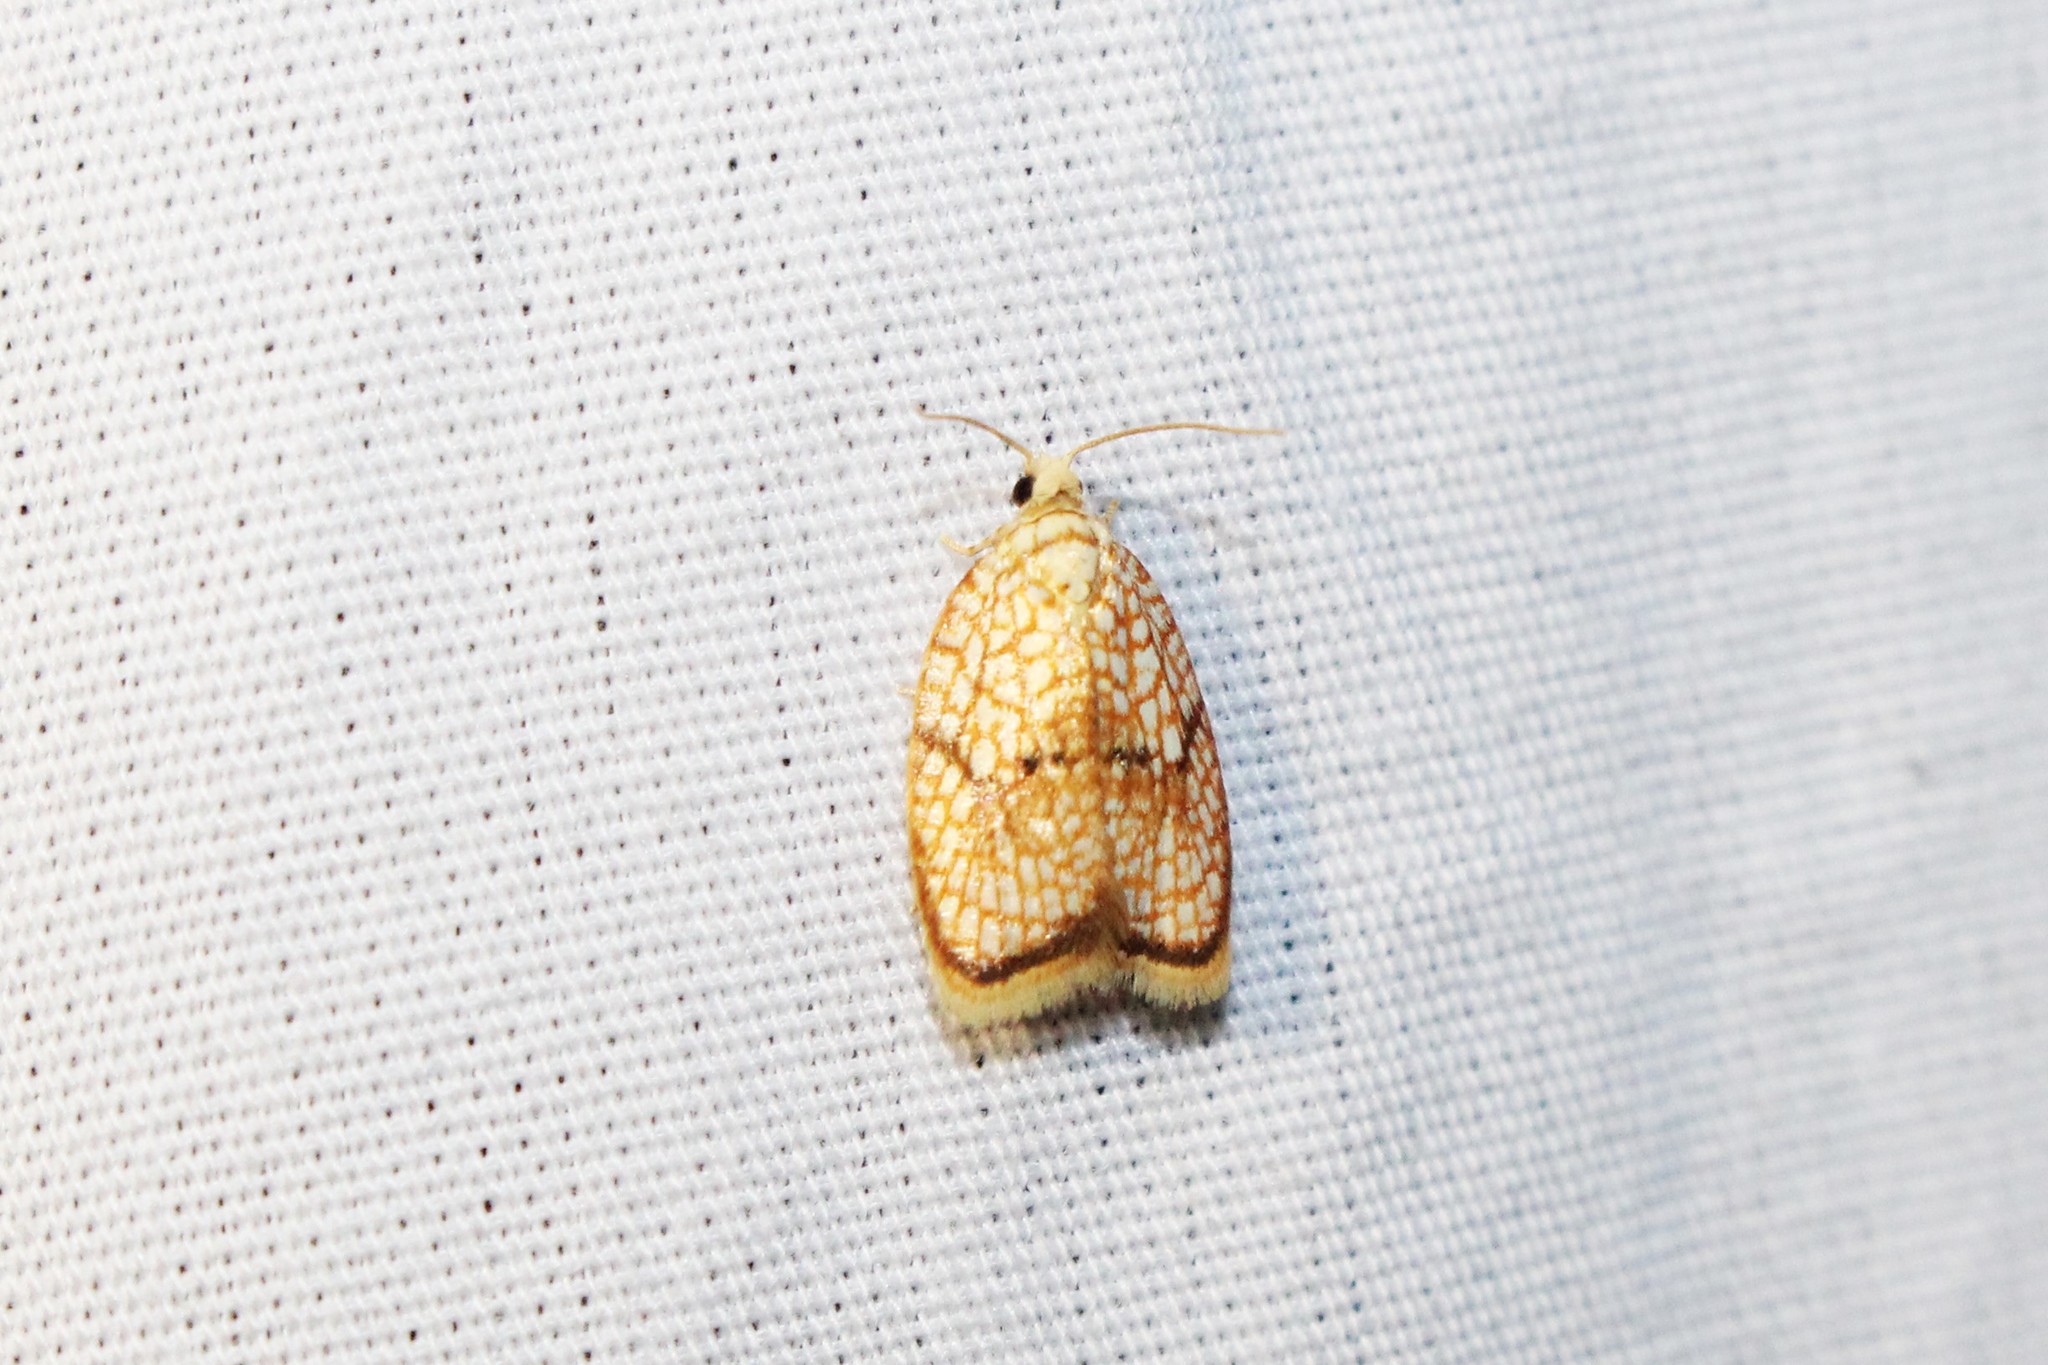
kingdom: Animalia
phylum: Arthropoda
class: Insecta
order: Lepidoptera
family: Tortricidae
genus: Acleris
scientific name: Acleris forsskaleana
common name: Maple button
